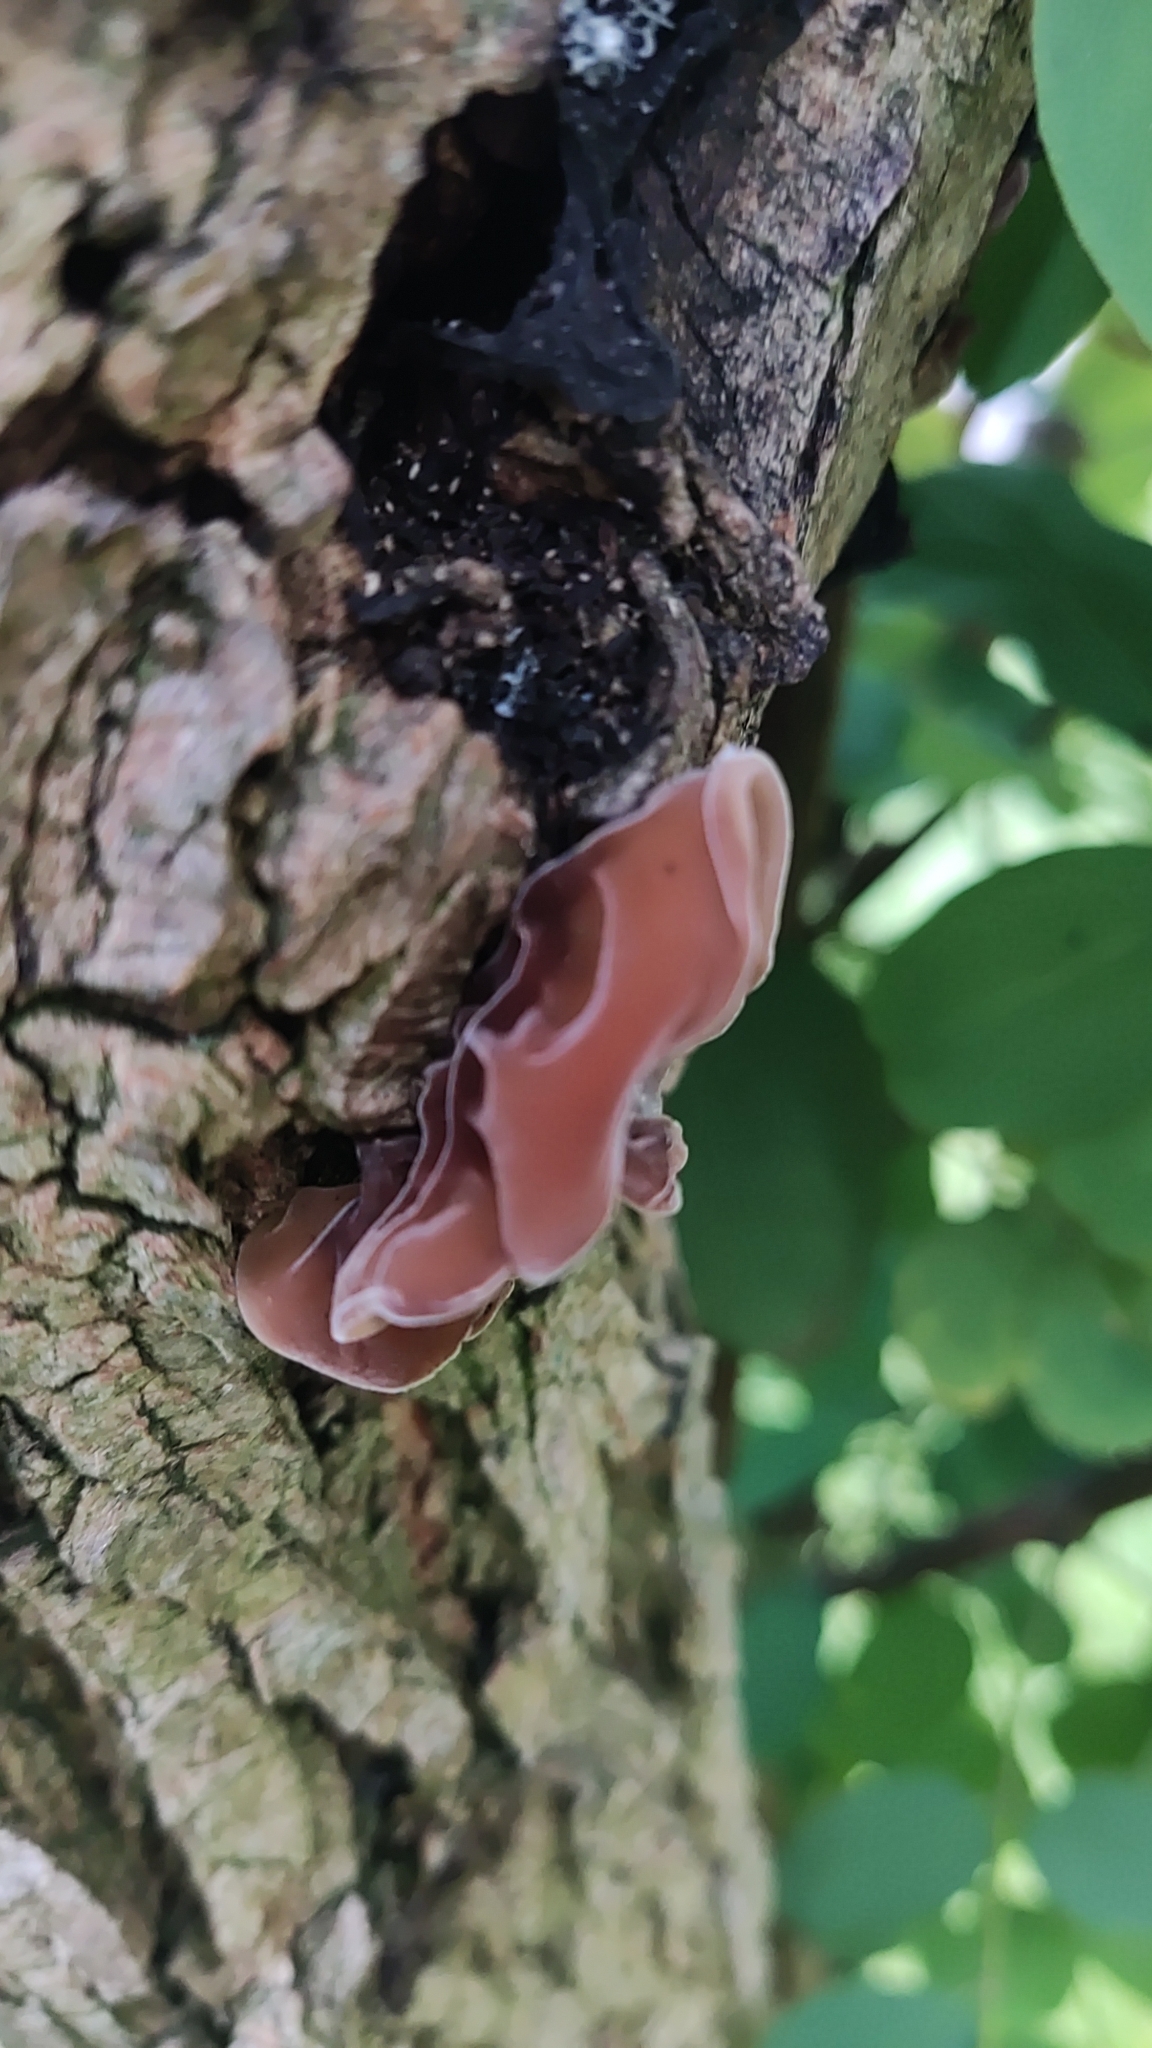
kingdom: Fungi
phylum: Basidiomycota
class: Agaricomycetes
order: Auriculariales
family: Auriculariaceae
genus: Auricularia
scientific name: Auricularia auricula-judae
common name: Jelly ear
